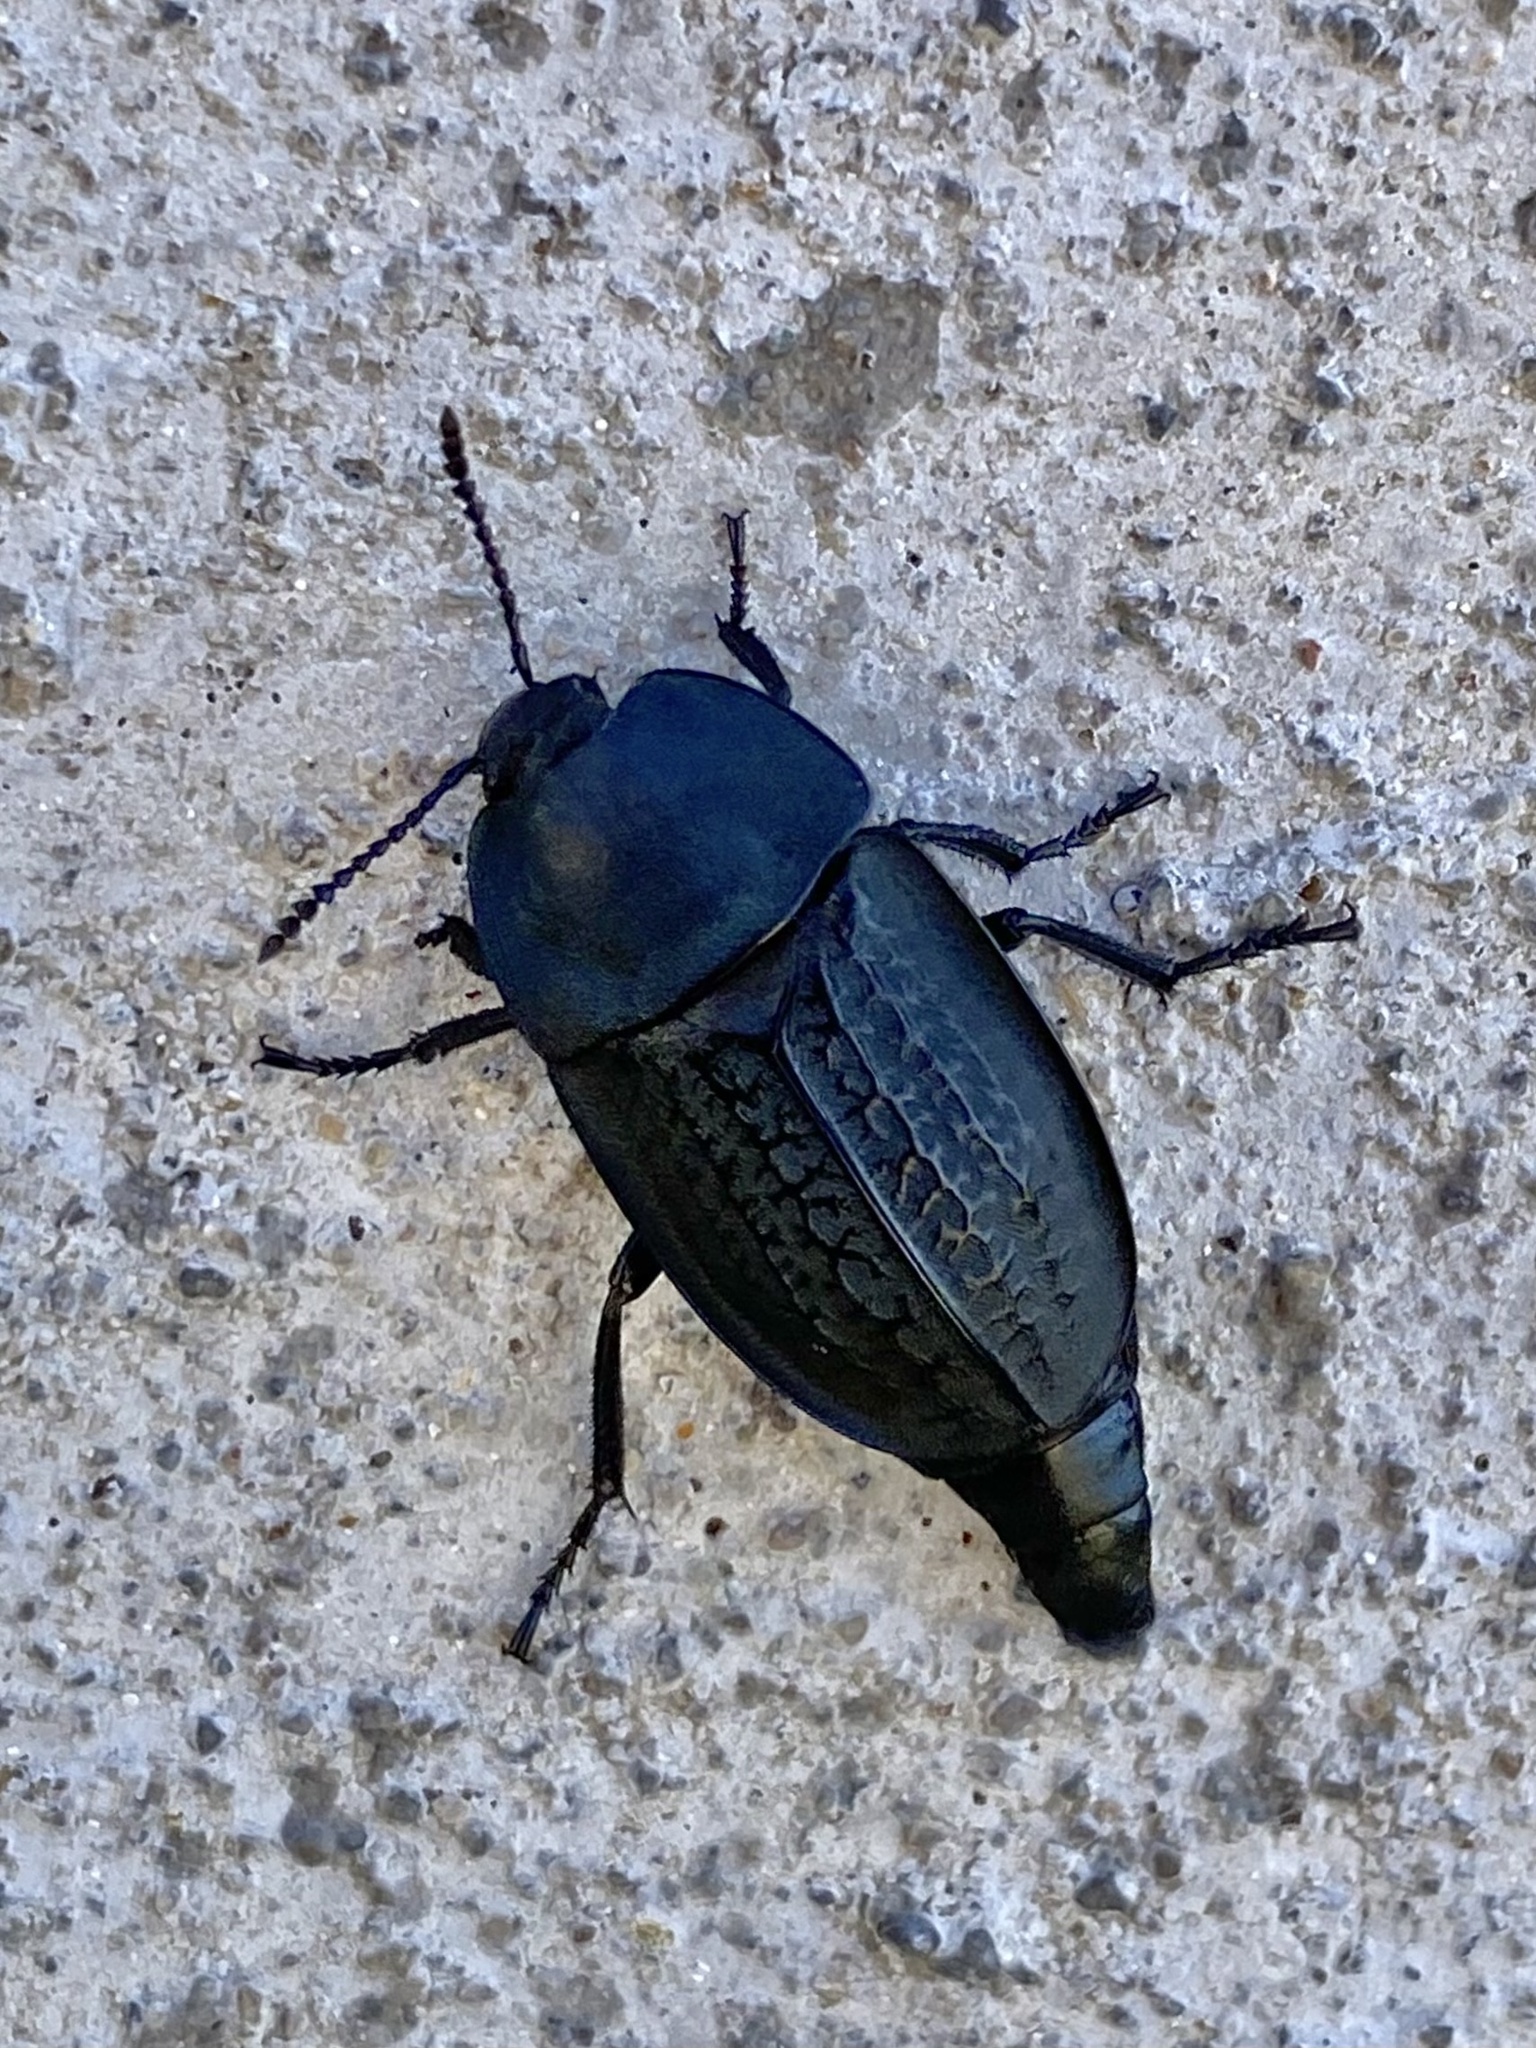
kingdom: Animalia
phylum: Arthropoda
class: Insecta
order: Coleoptera
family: Staphylinidae
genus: Heterosilpha
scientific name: Heterosilpha ramosa
